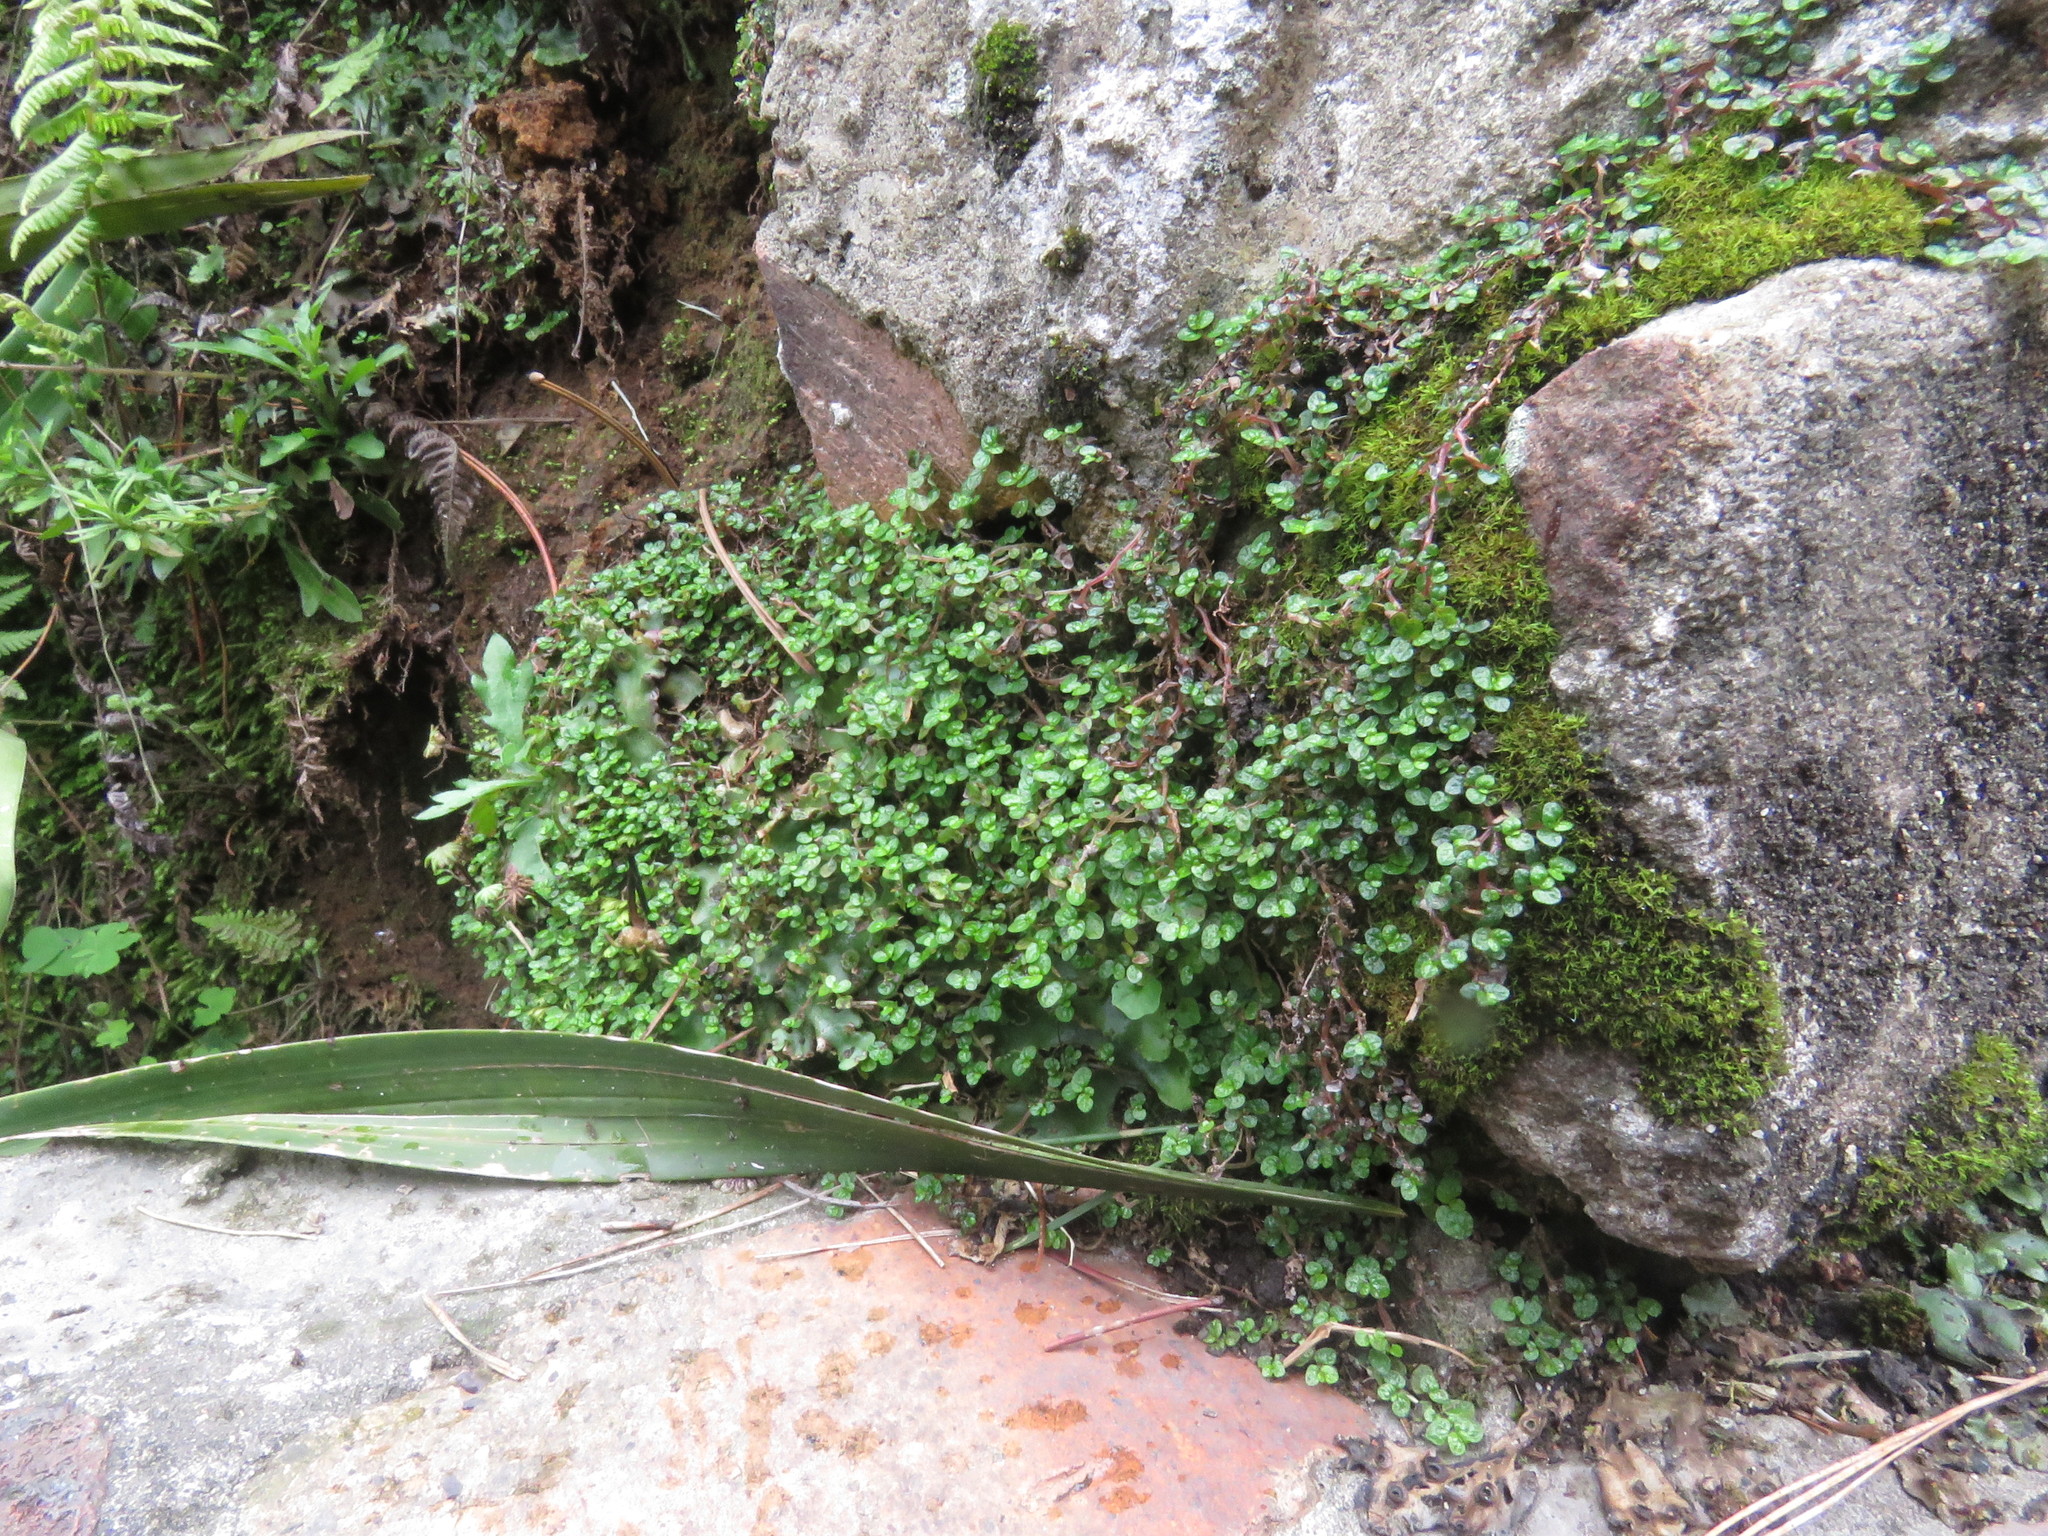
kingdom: Plantae
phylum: Tracheophyta
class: Magnoliopsida
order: Rosales
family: Urticaceae
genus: Soleirolia
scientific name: Soleirolia soleirolii
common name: Mind-your-own-business
